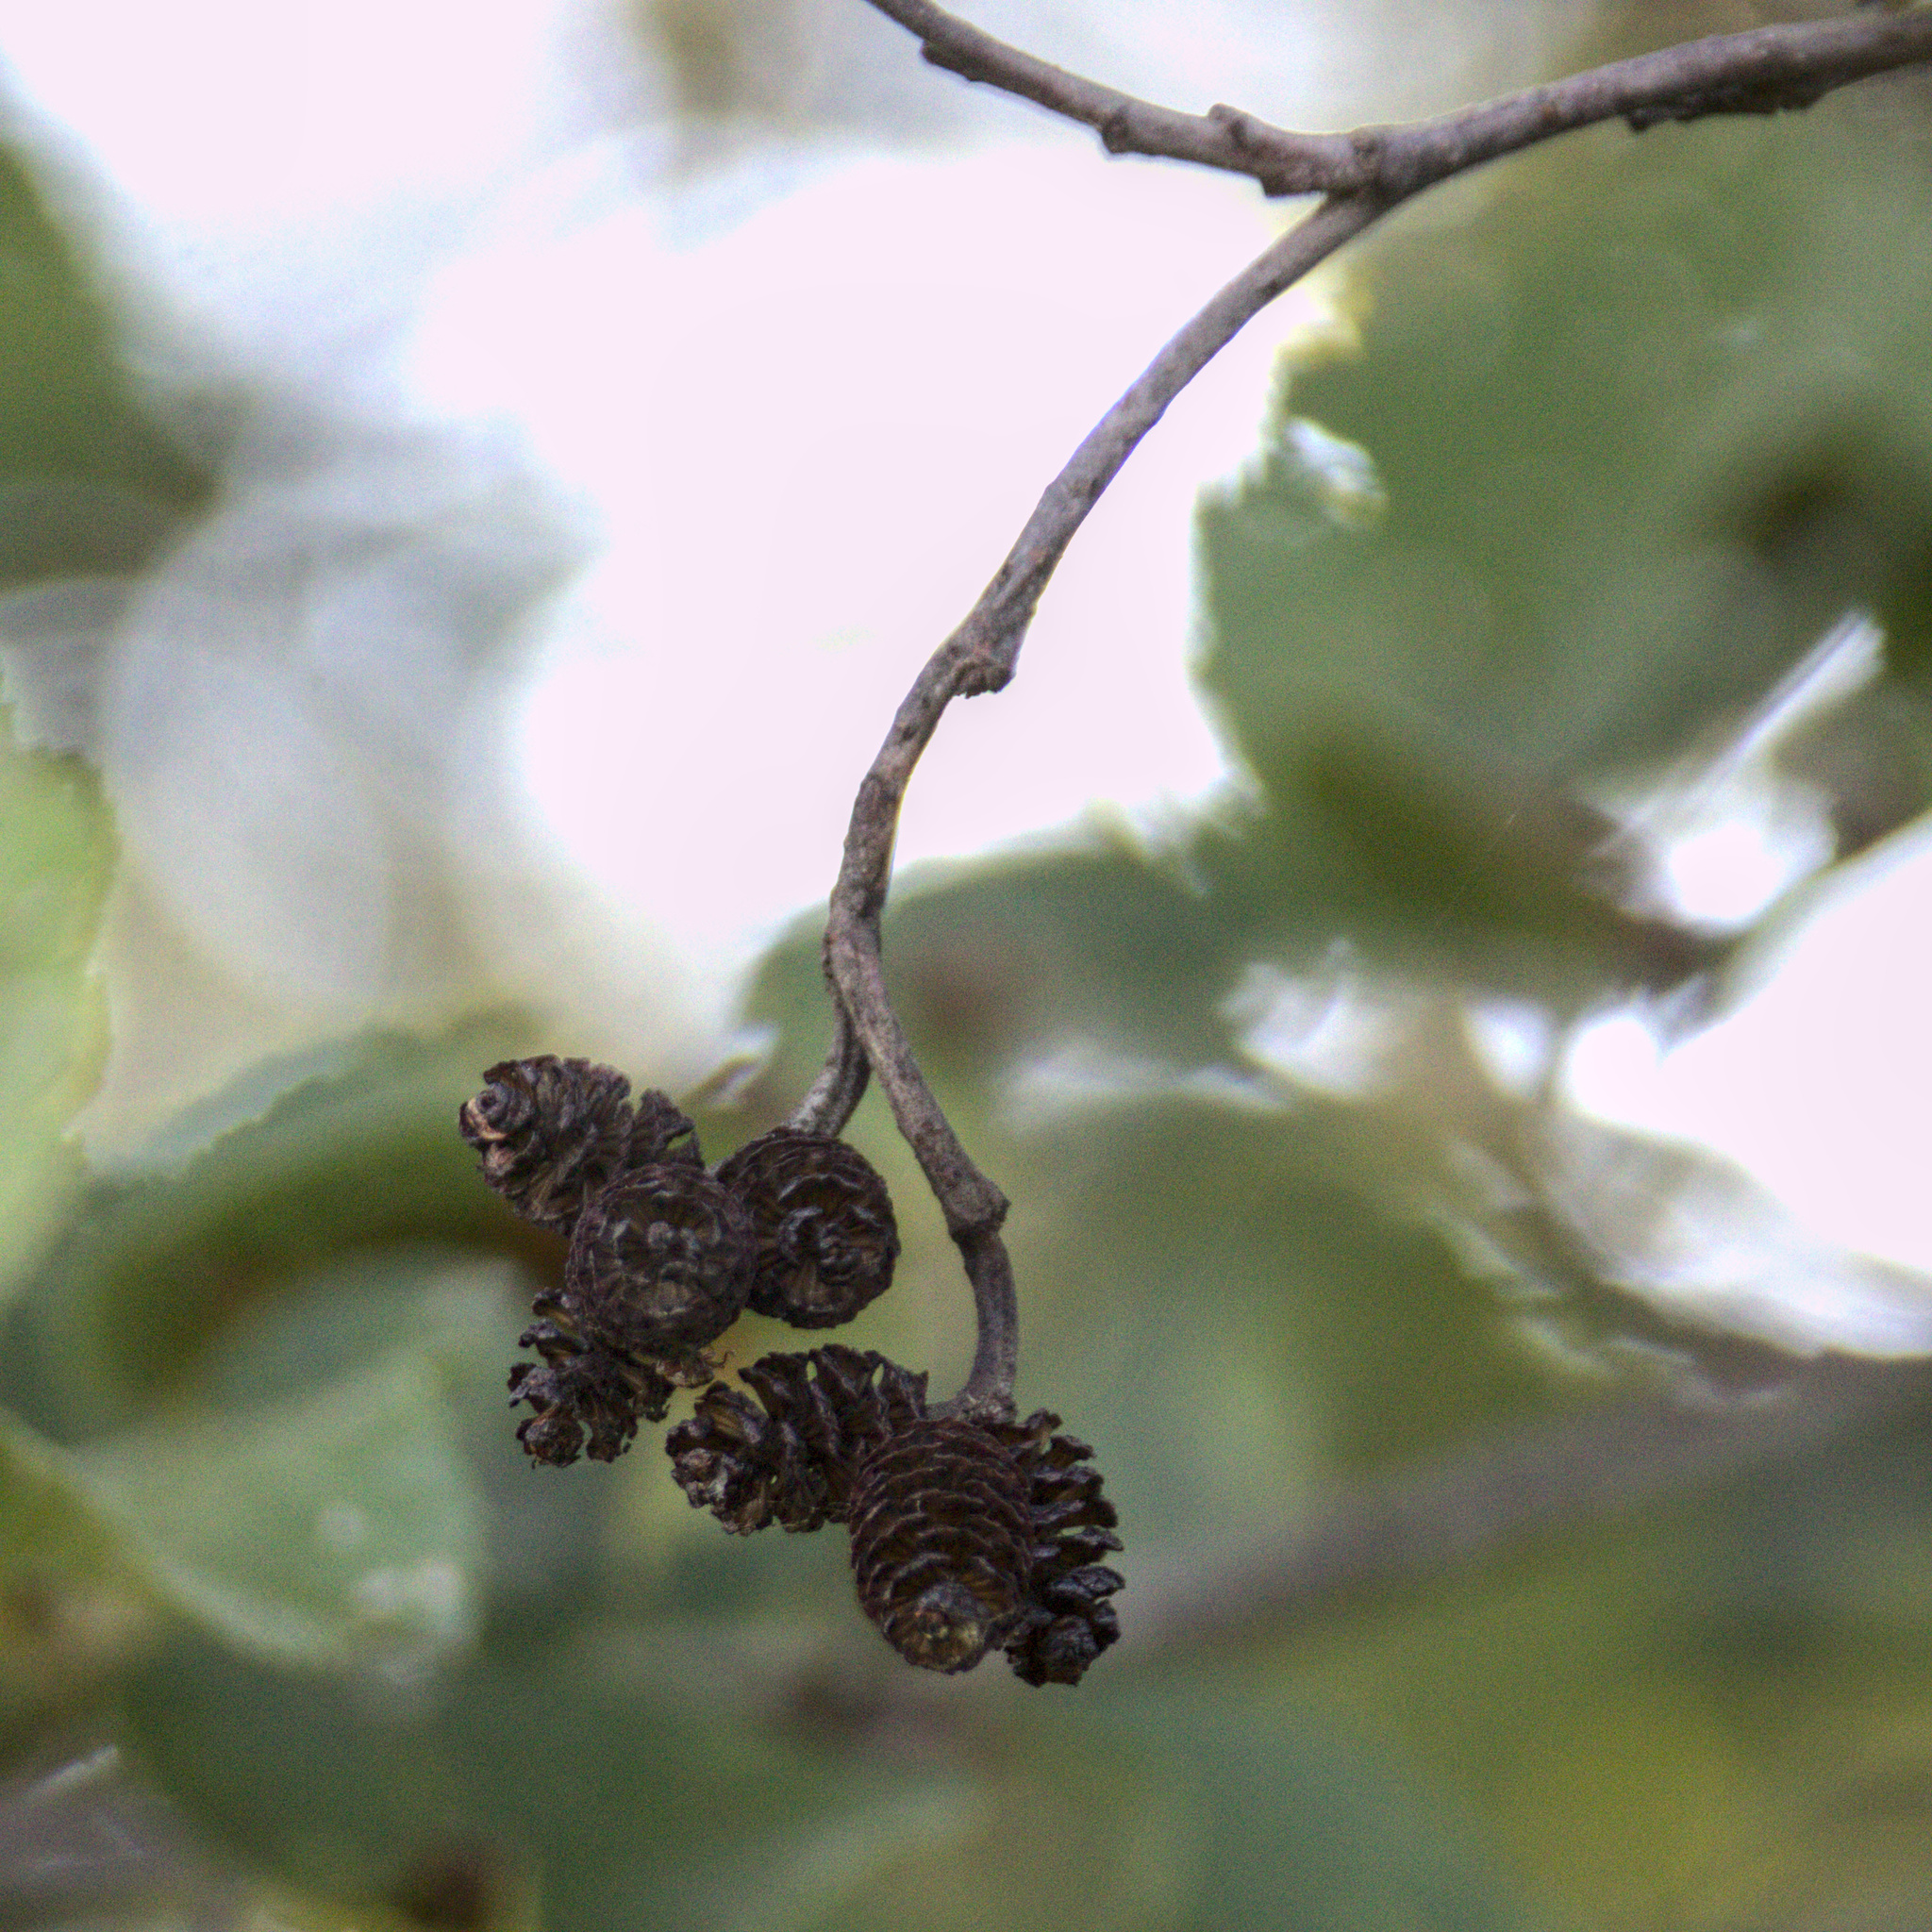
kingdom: Plantae
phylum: Tracheophyta
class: Magnoliopsida
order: Fagales
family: Betulaceae
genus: Alnus
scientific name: Alnus incana
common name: Grey alder
